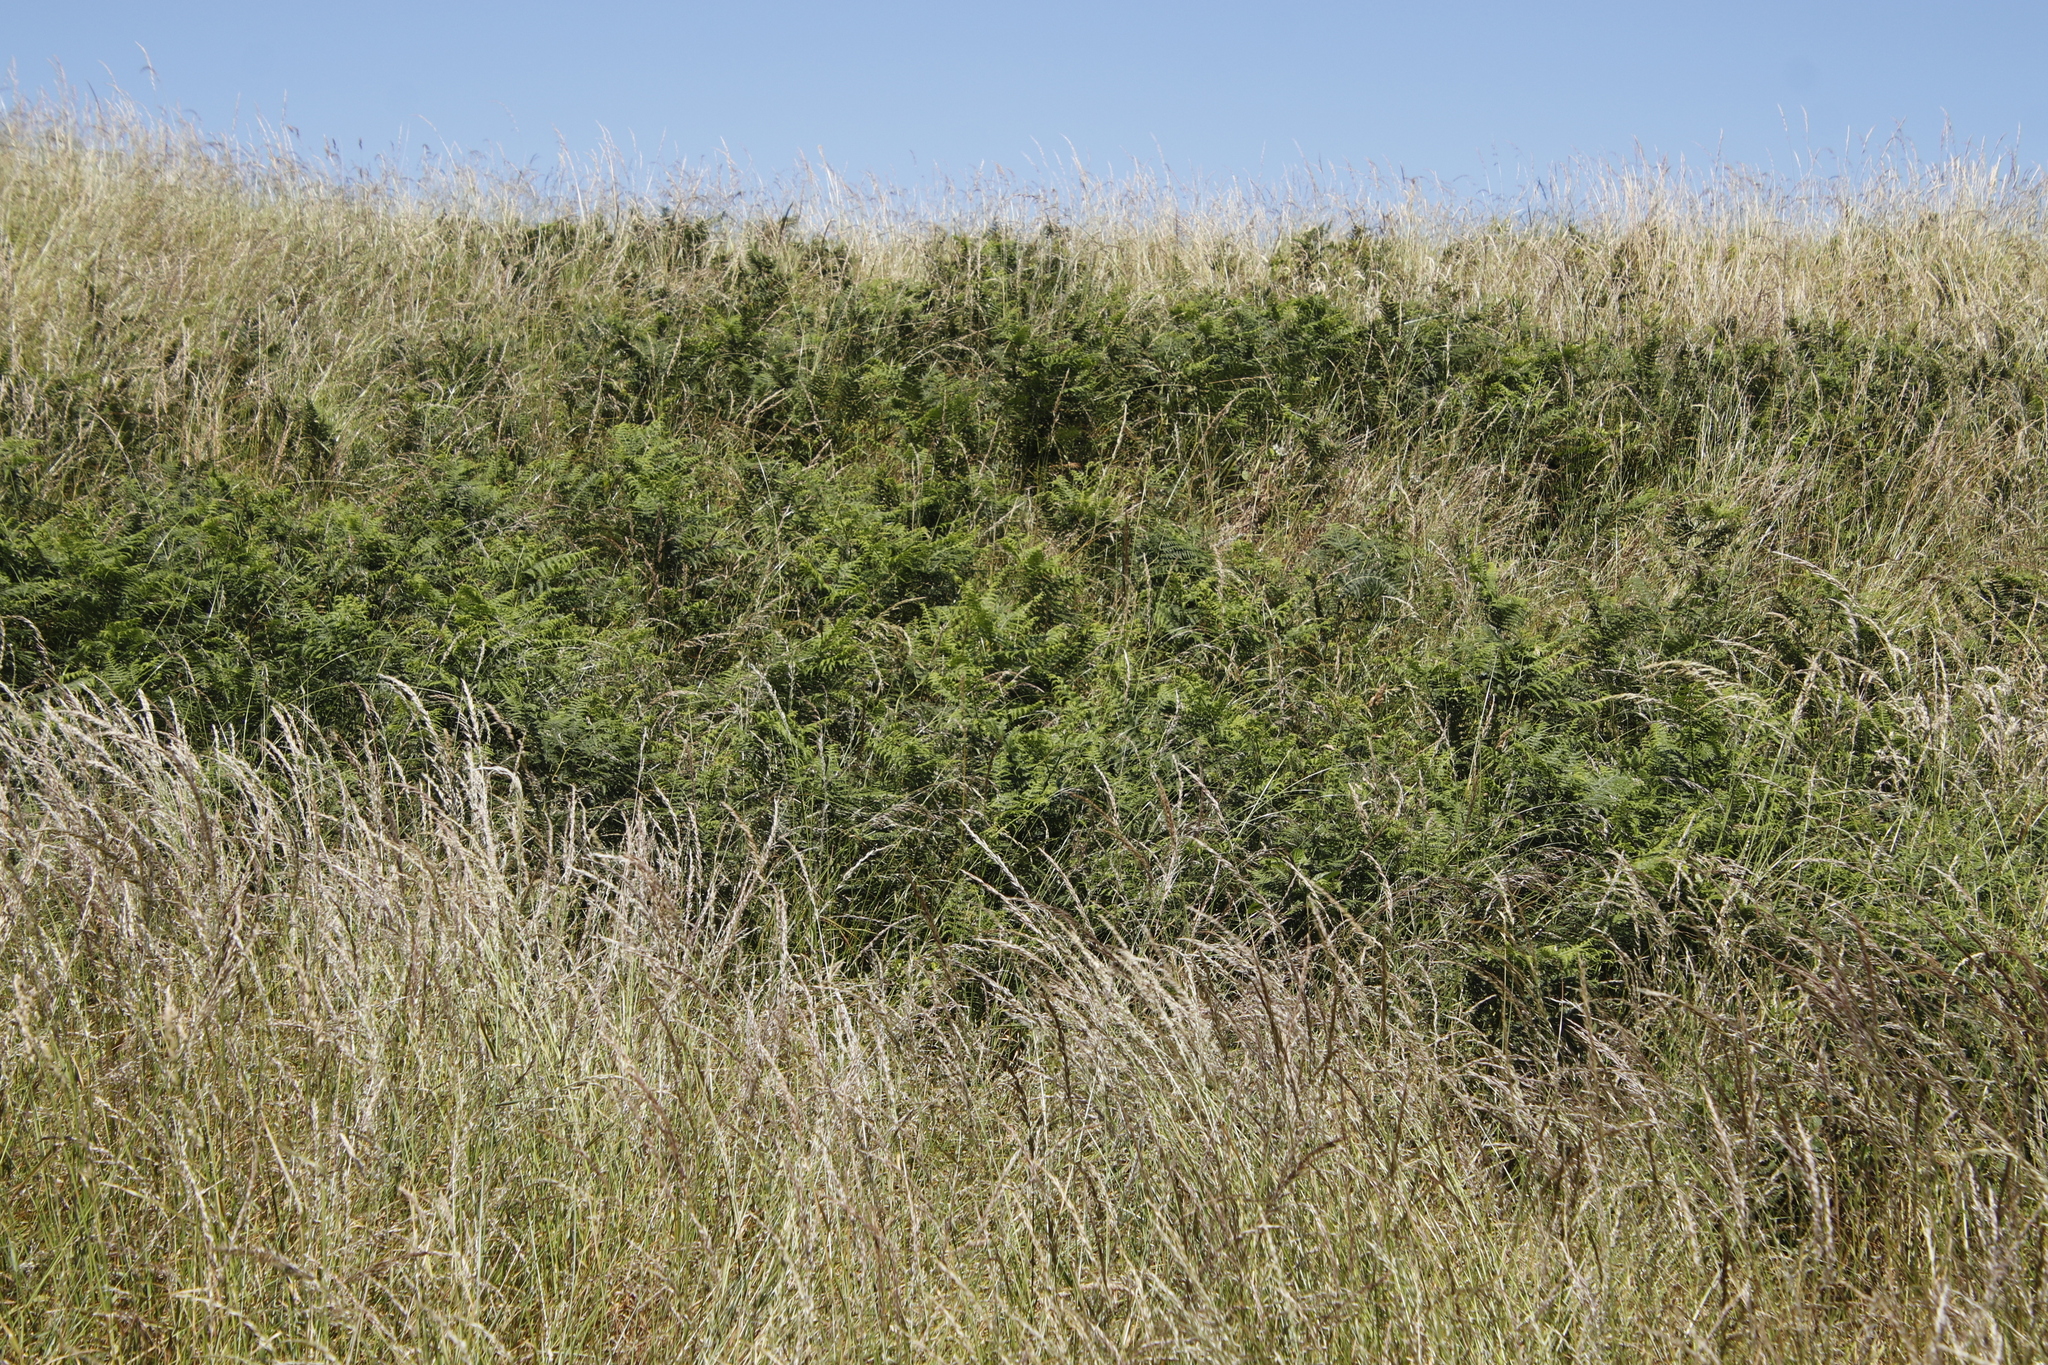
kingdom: Plantae
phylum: Tracheophyta
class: Polypodiopsida
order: Polypodiales
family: Dennstaedtiaceae
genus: Pteridium
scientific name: Pteridium aquilinum
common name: Bracken
